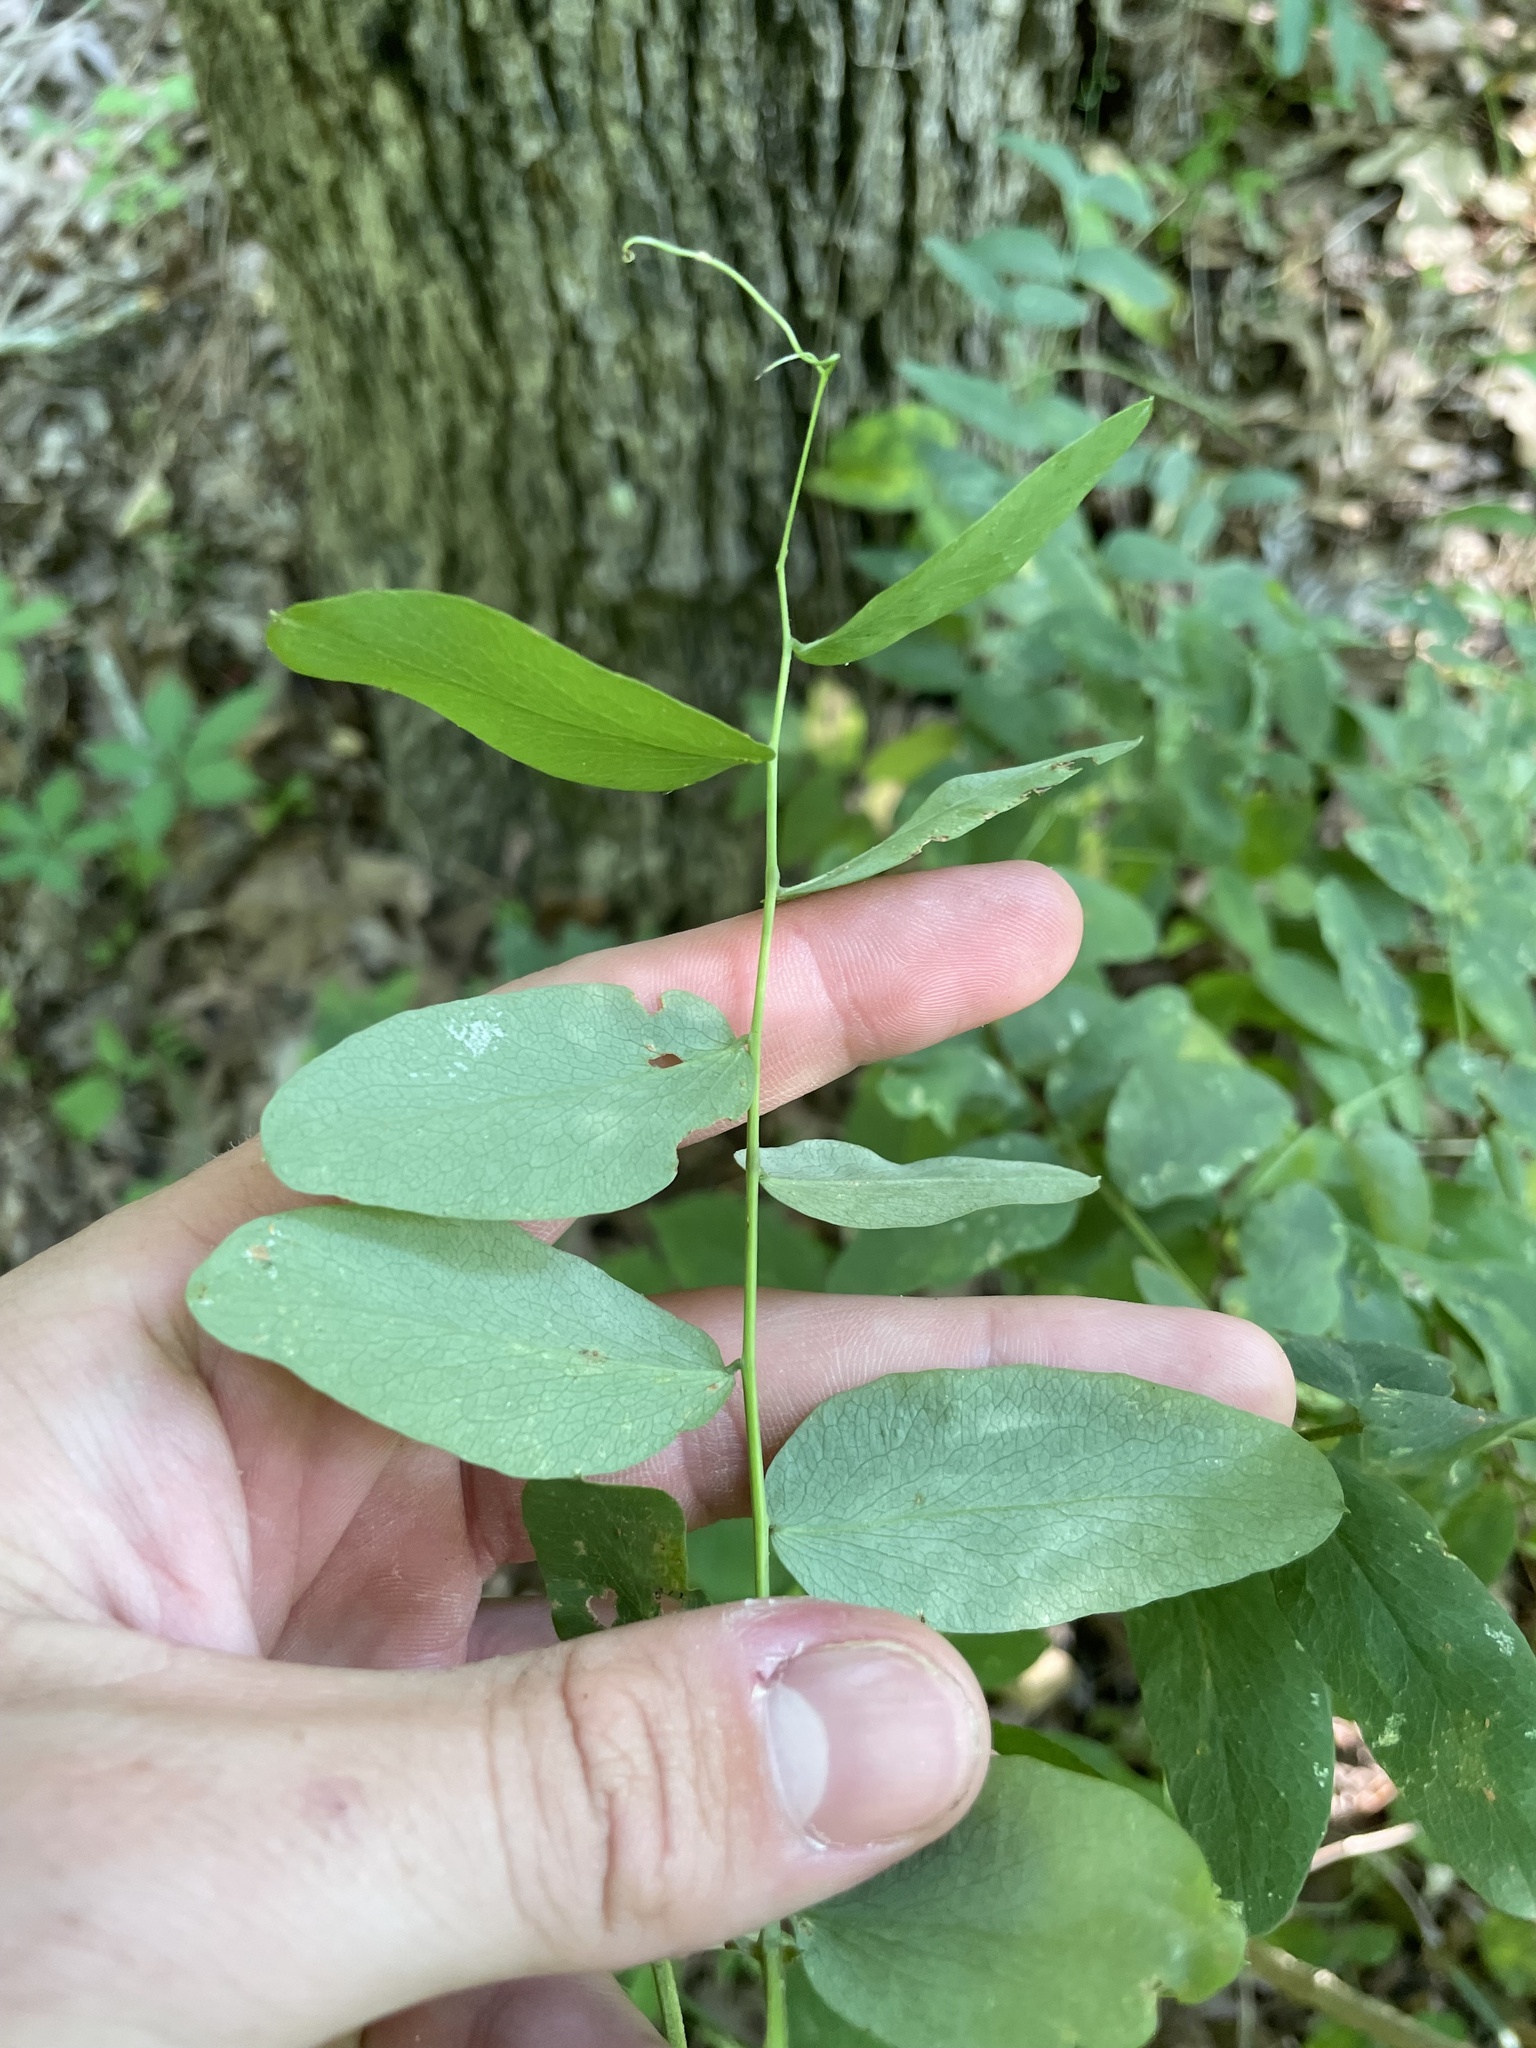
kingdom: Plantae
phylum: Tracheophyta
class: Magnoliopsida
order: Fabales
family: Fabaceae
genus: Lathyrus
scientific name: Lathyrus venosus
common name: Forest-pea
